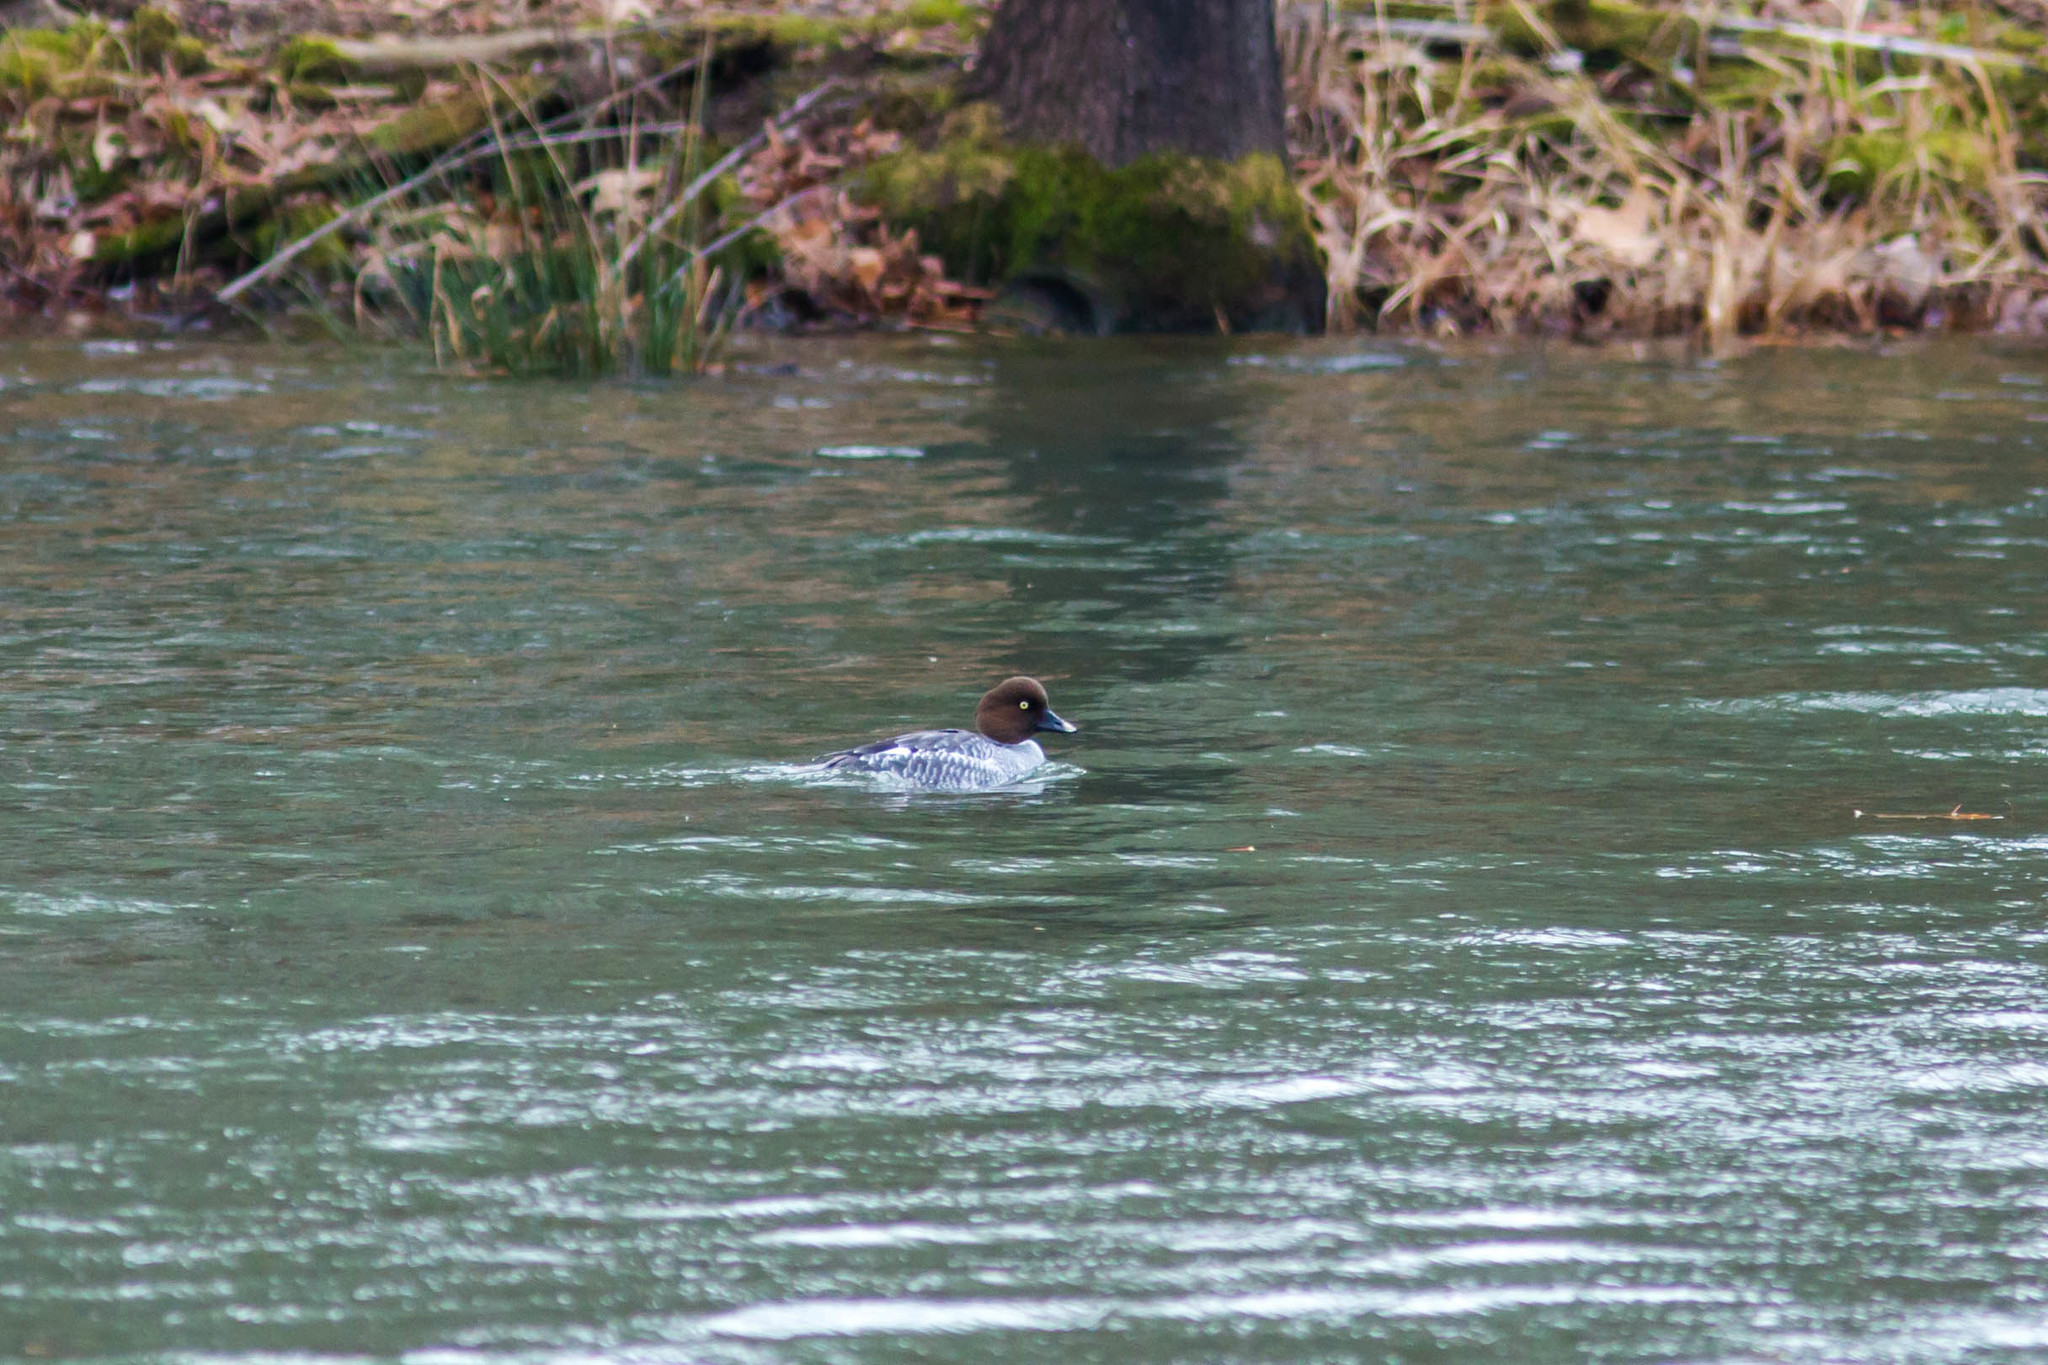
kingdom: Animalia
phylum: Chordata
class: Aves
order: Anseriformes
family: Anatidae
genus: Bucephala
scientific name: Bucephala clangula
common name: Common goldeneye
